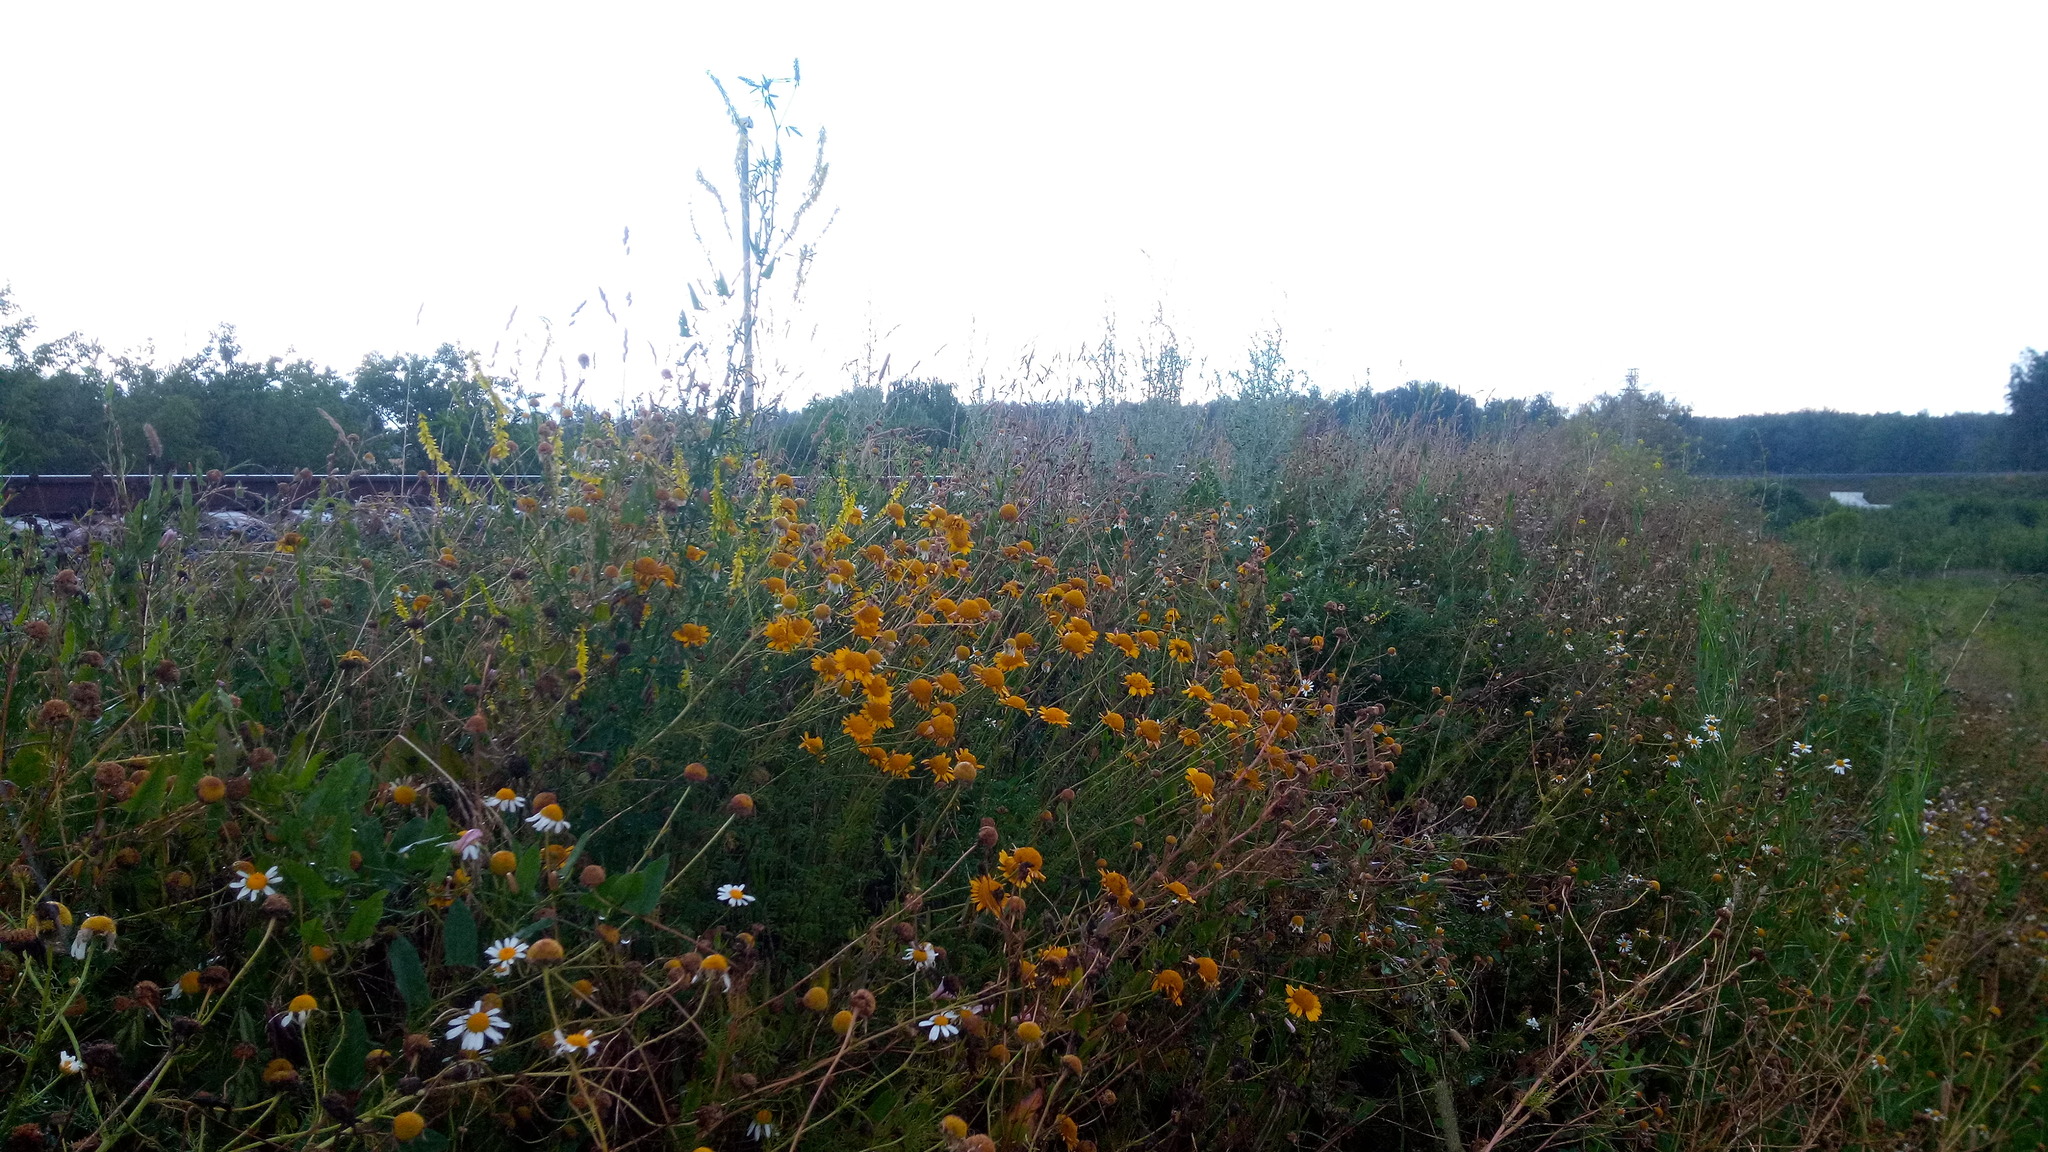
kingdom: Plantae
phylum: Tracheophyta
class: Magnoliopsida
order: Asterales
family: Asteraceae
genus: Cota
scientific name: Cota tinctoria
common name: Golden chamomile
